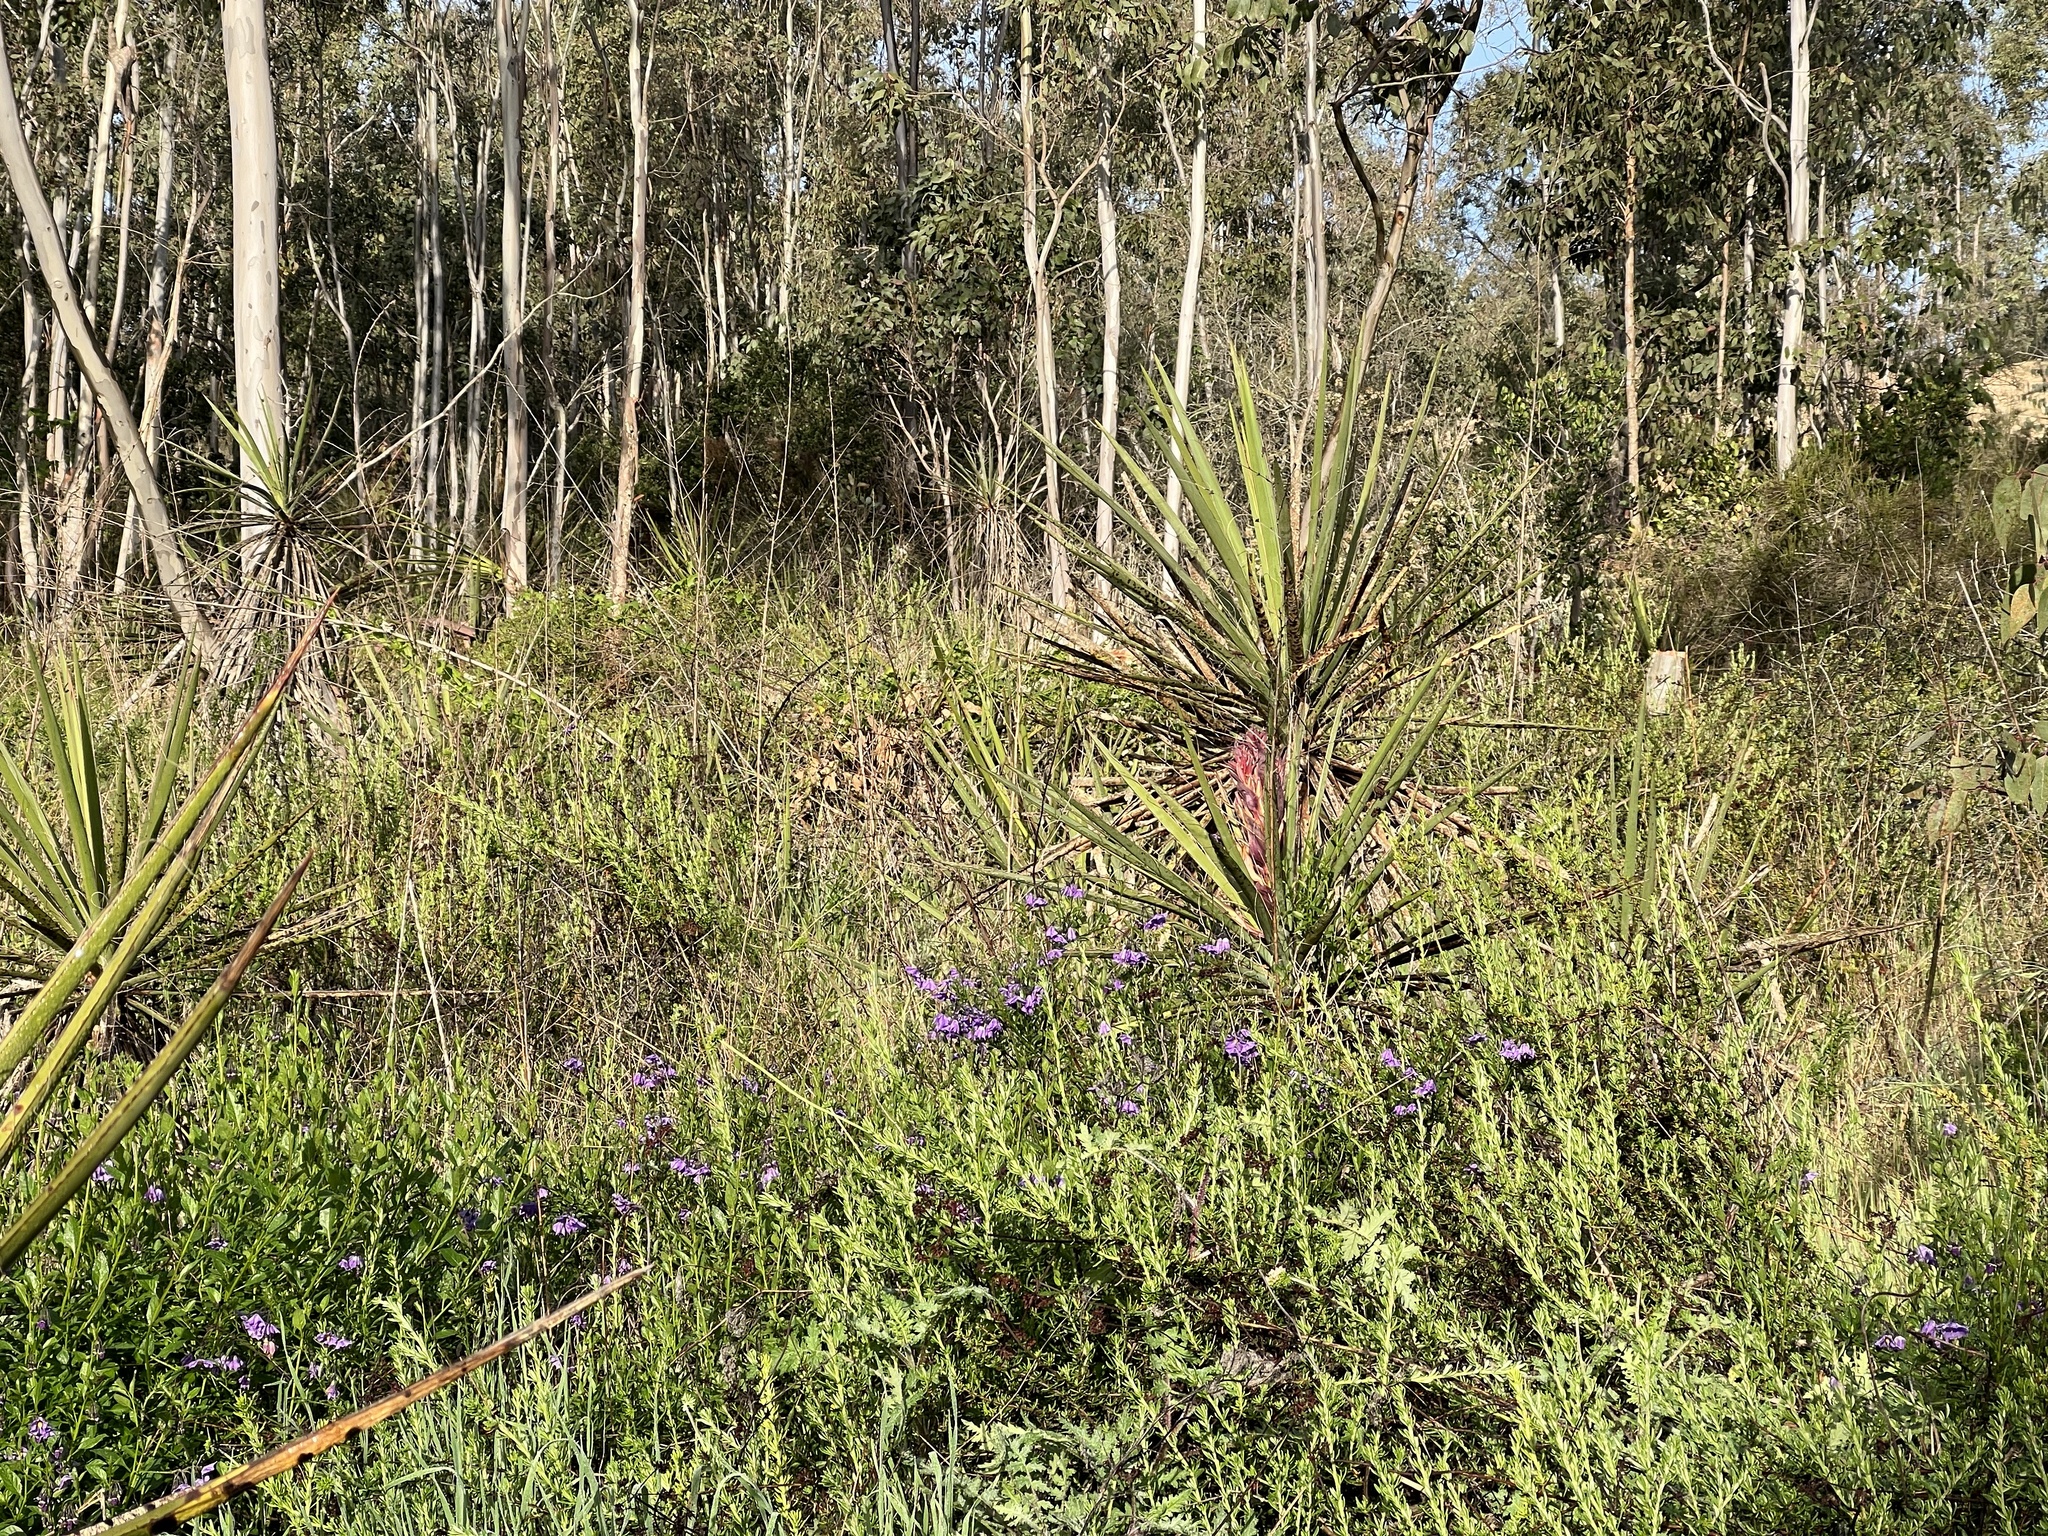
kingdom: Plantae
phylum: Tracheophyta
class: Liliopsida
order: Asparagales
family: Asparagaceae
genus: Yucca
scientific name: Yucca schidigera
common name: Mojave yucca
